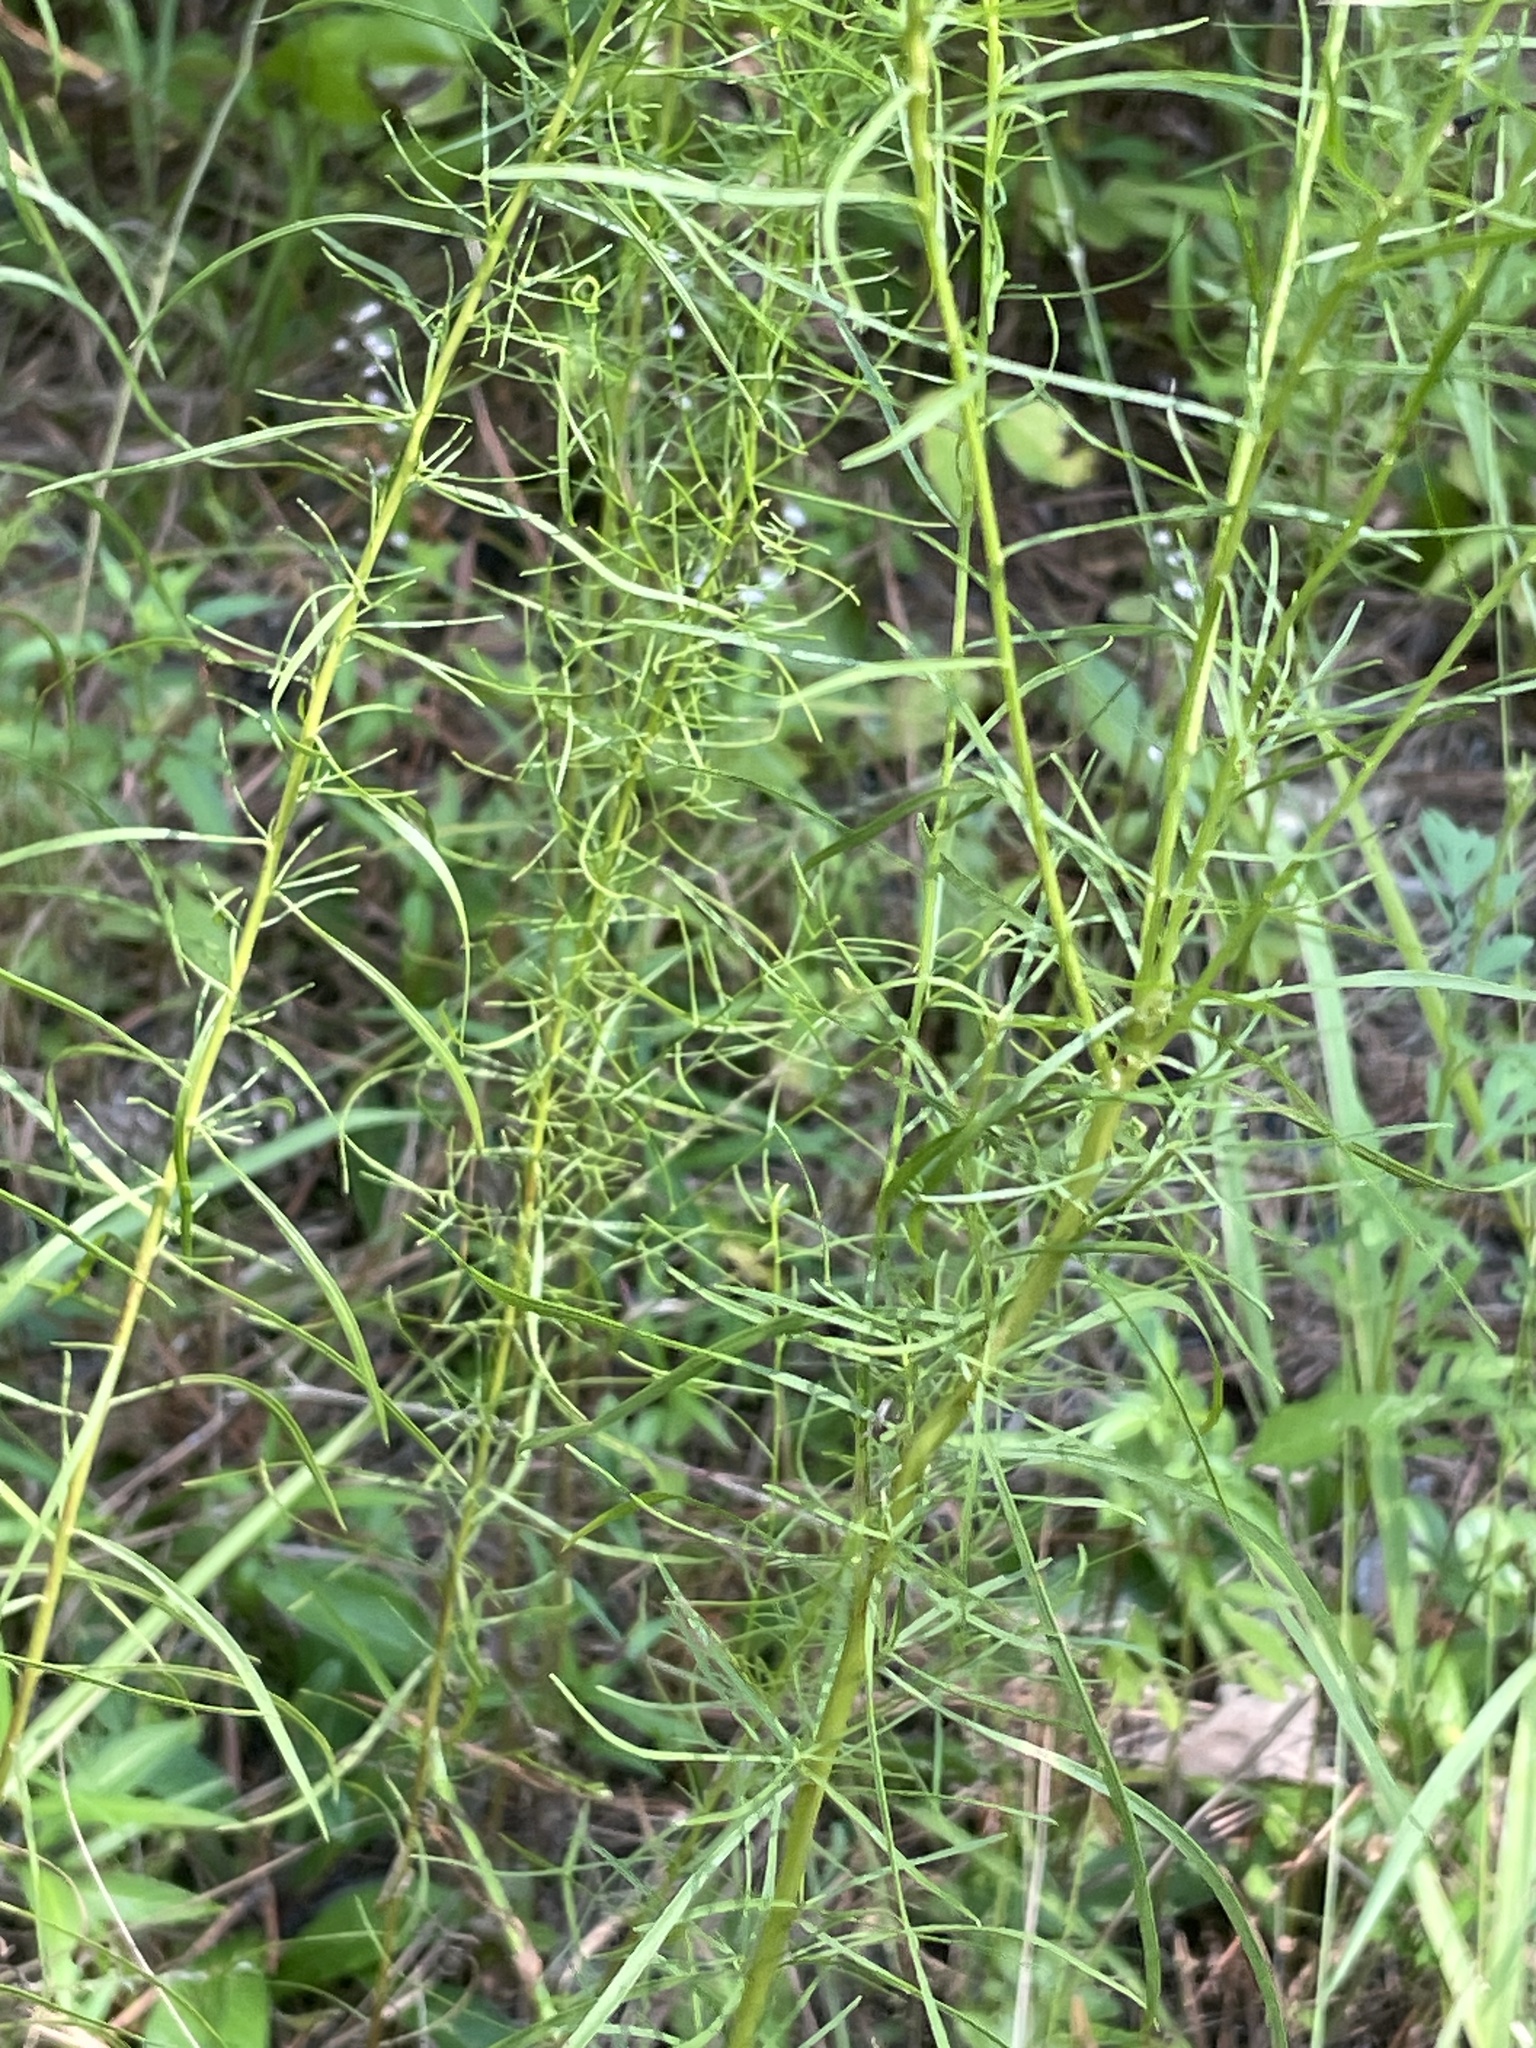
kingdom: Plantae
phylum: Tracheophyta
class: Magnoliopsida
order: Asterales
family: Asteraceae
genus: Euthamia
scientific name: Euthamia caroliniana
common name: Coastal plain goldentop
